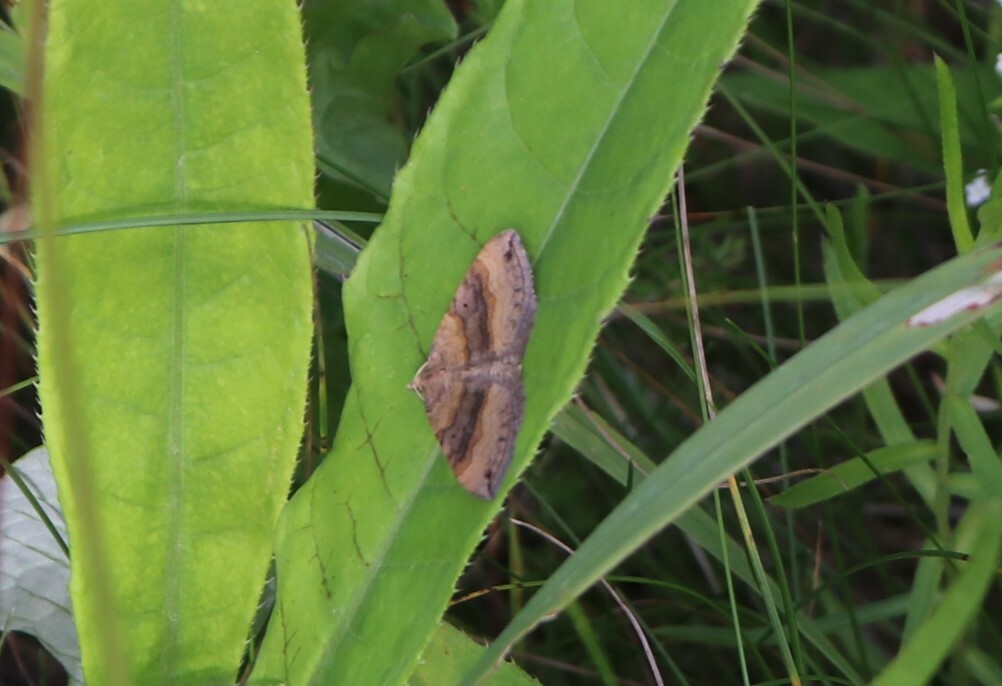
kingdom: Animalia
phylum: Arthropoda
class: Insecta
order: Lepidoptera
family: Geometridae
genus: Scotopteryx
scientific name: Scotopteryx chenopodiata
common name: Shaded broad-bar
